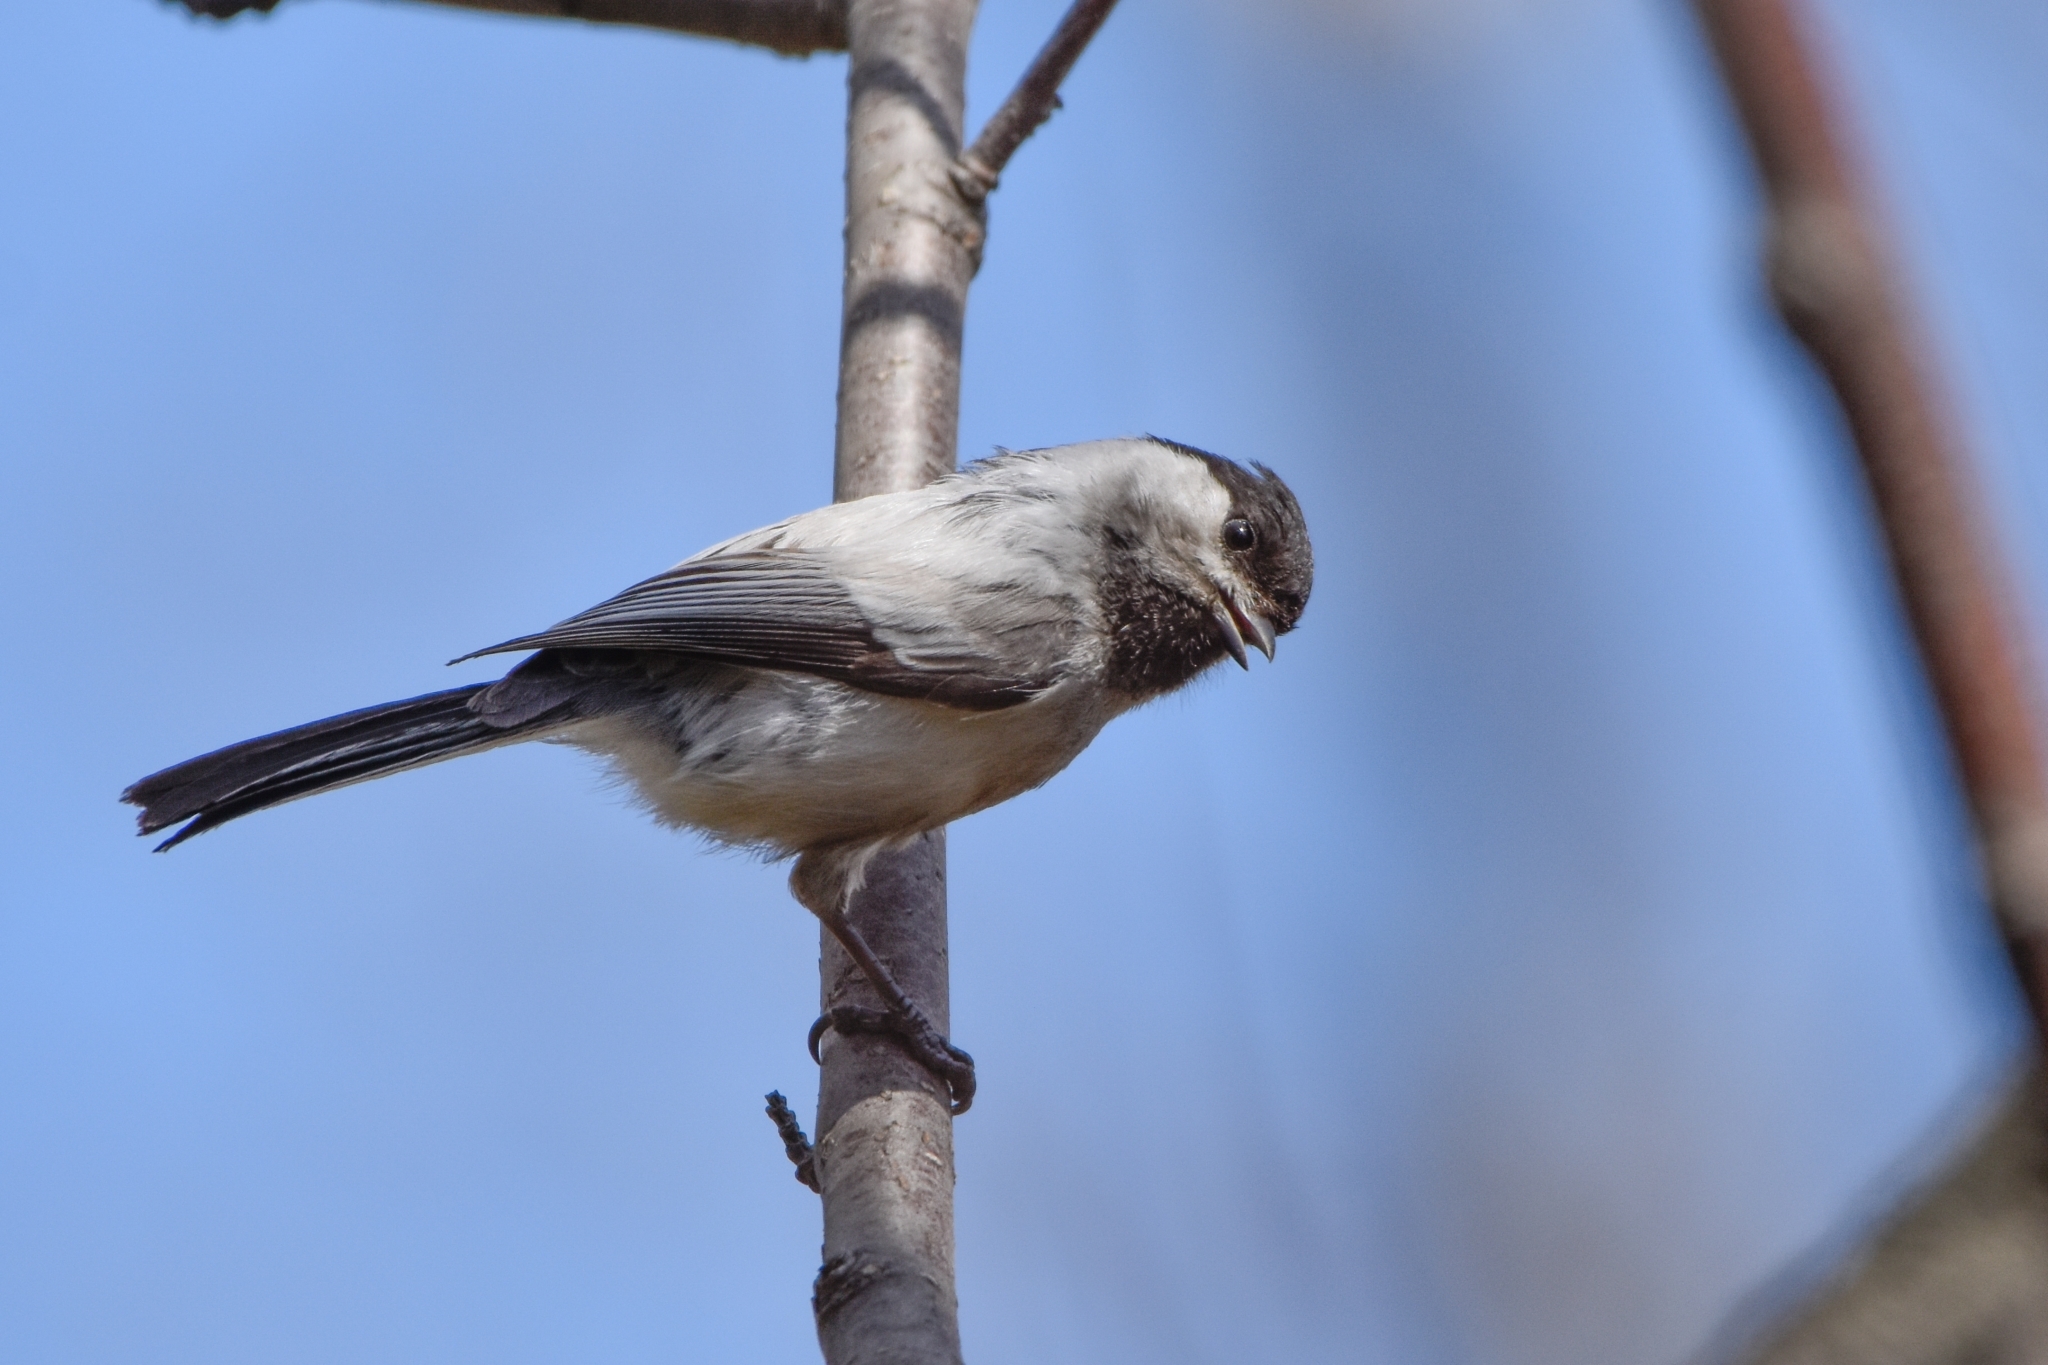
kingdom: Animalia
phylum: Chordata
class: Aves
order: Passeriformes
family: Paridae
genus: Poecile
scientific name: Poecile montanus
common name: Willow tit
